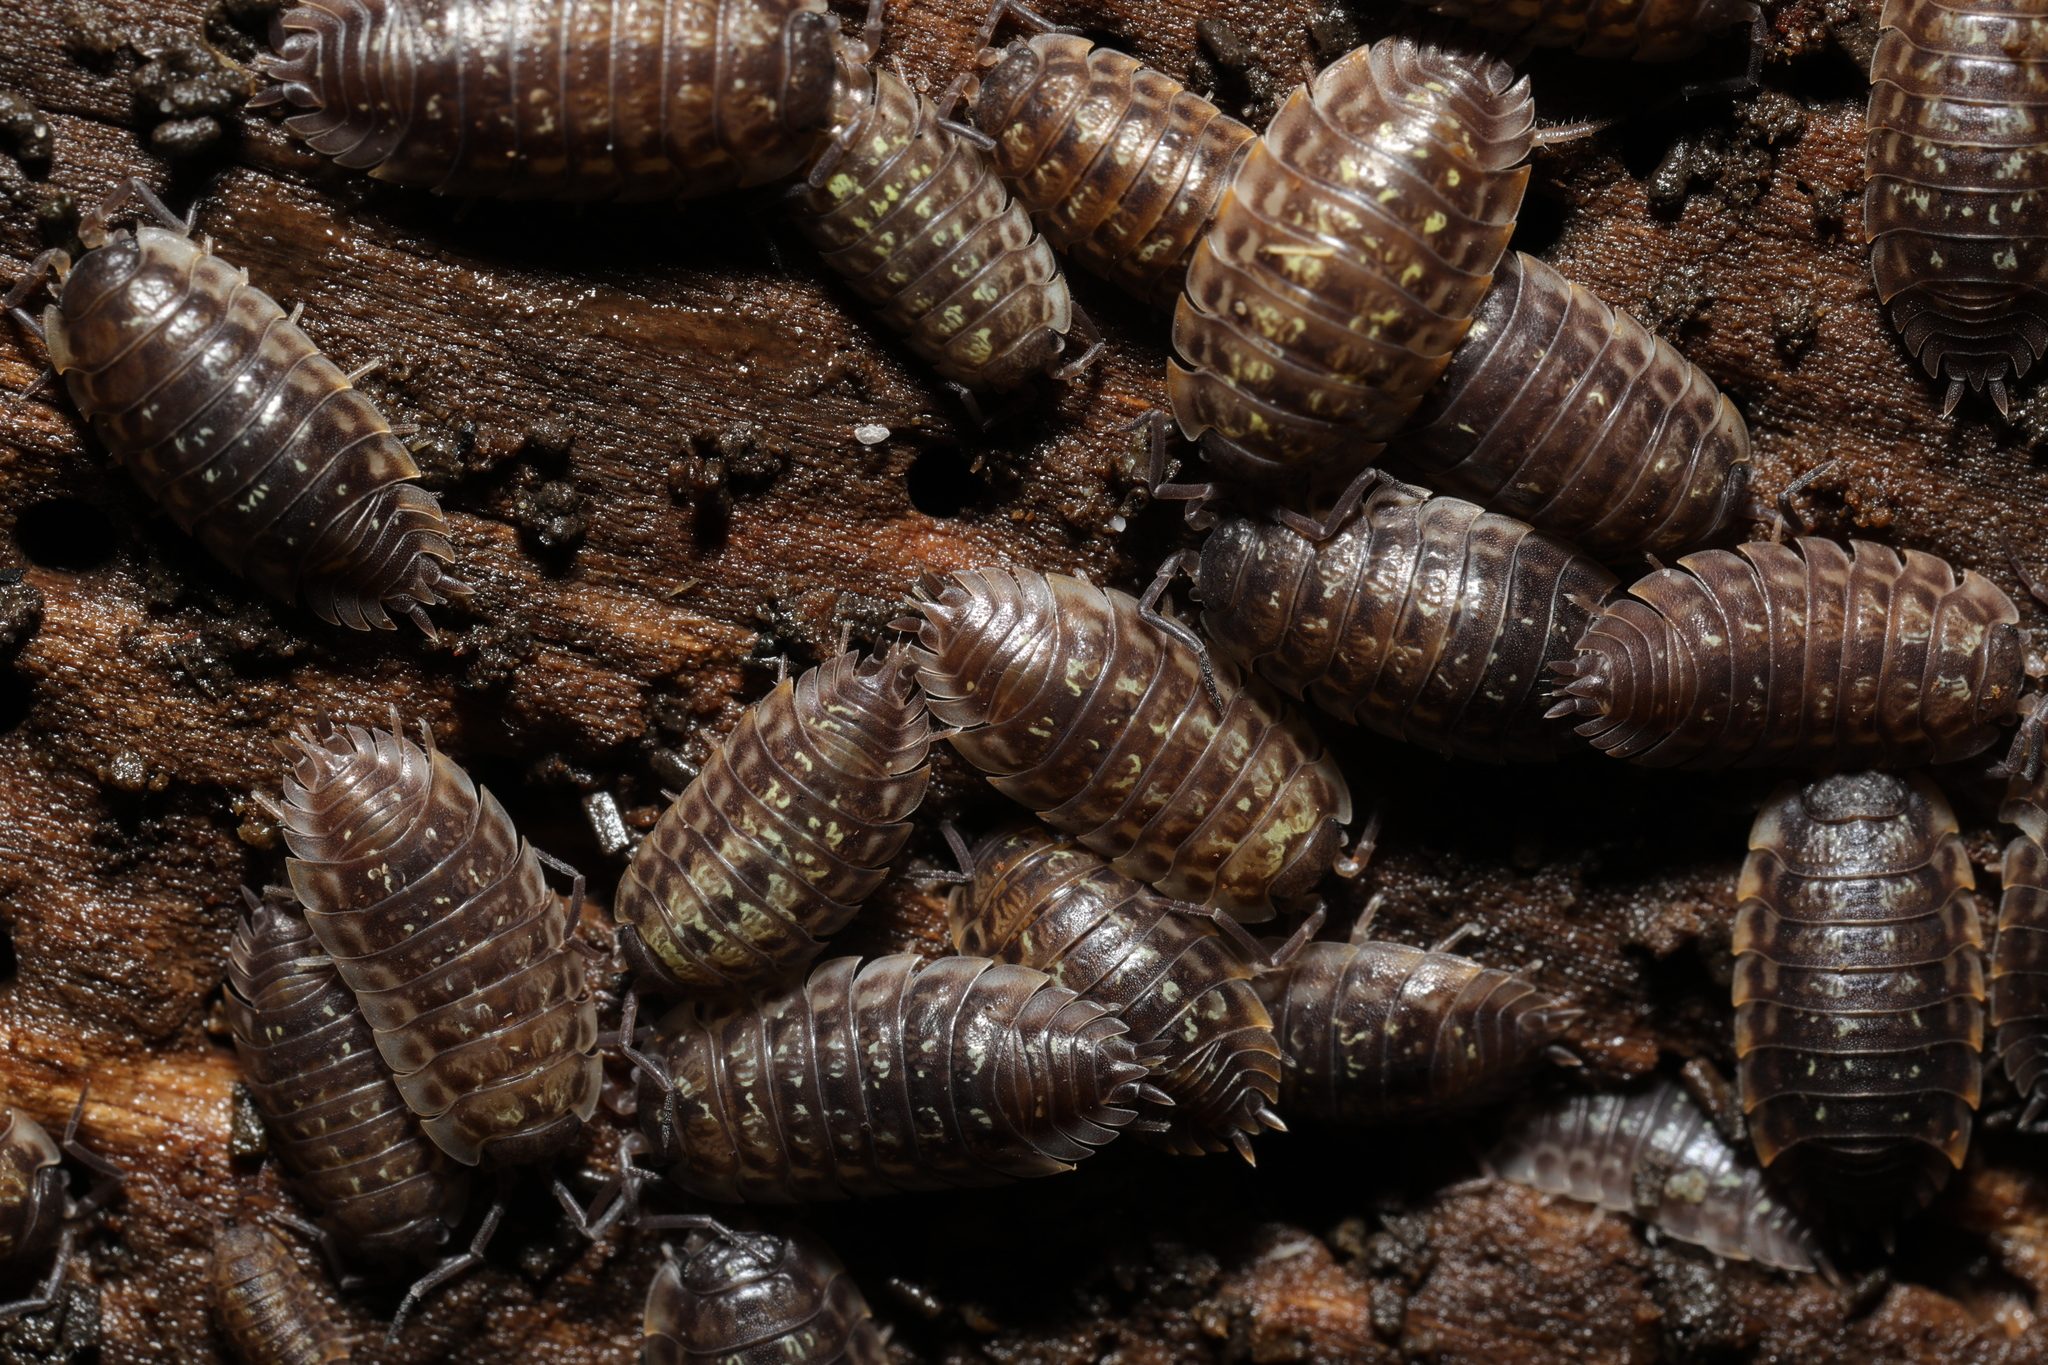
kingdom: Animalia
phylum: Arthropoda
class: Malacostraca
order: Isopoda
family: Oniscidae
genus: Oniscus
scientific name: Oniscus asellus
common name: Common shiny woodlouse
